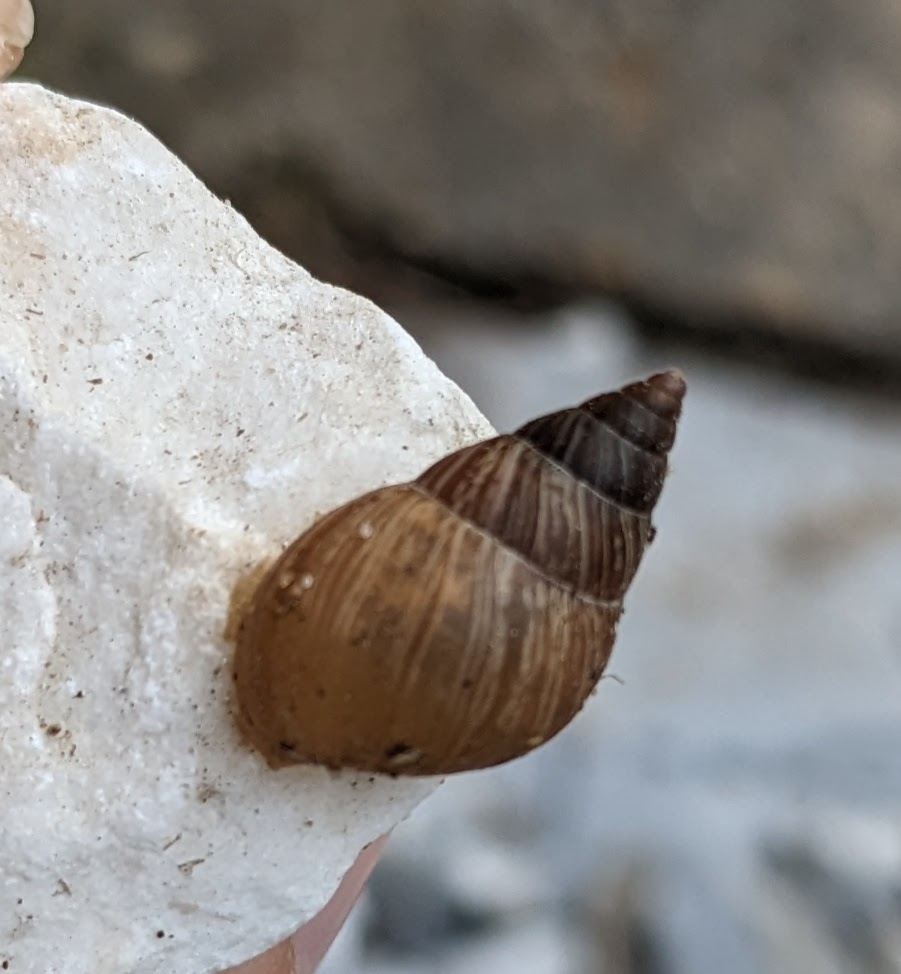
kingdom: Animalia
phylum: Mollusca
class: Gastropoda
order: Stylommatophora
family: Bulimulidae
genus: Bulimulus
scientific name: Bulimulus bonariensis
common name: Snail
